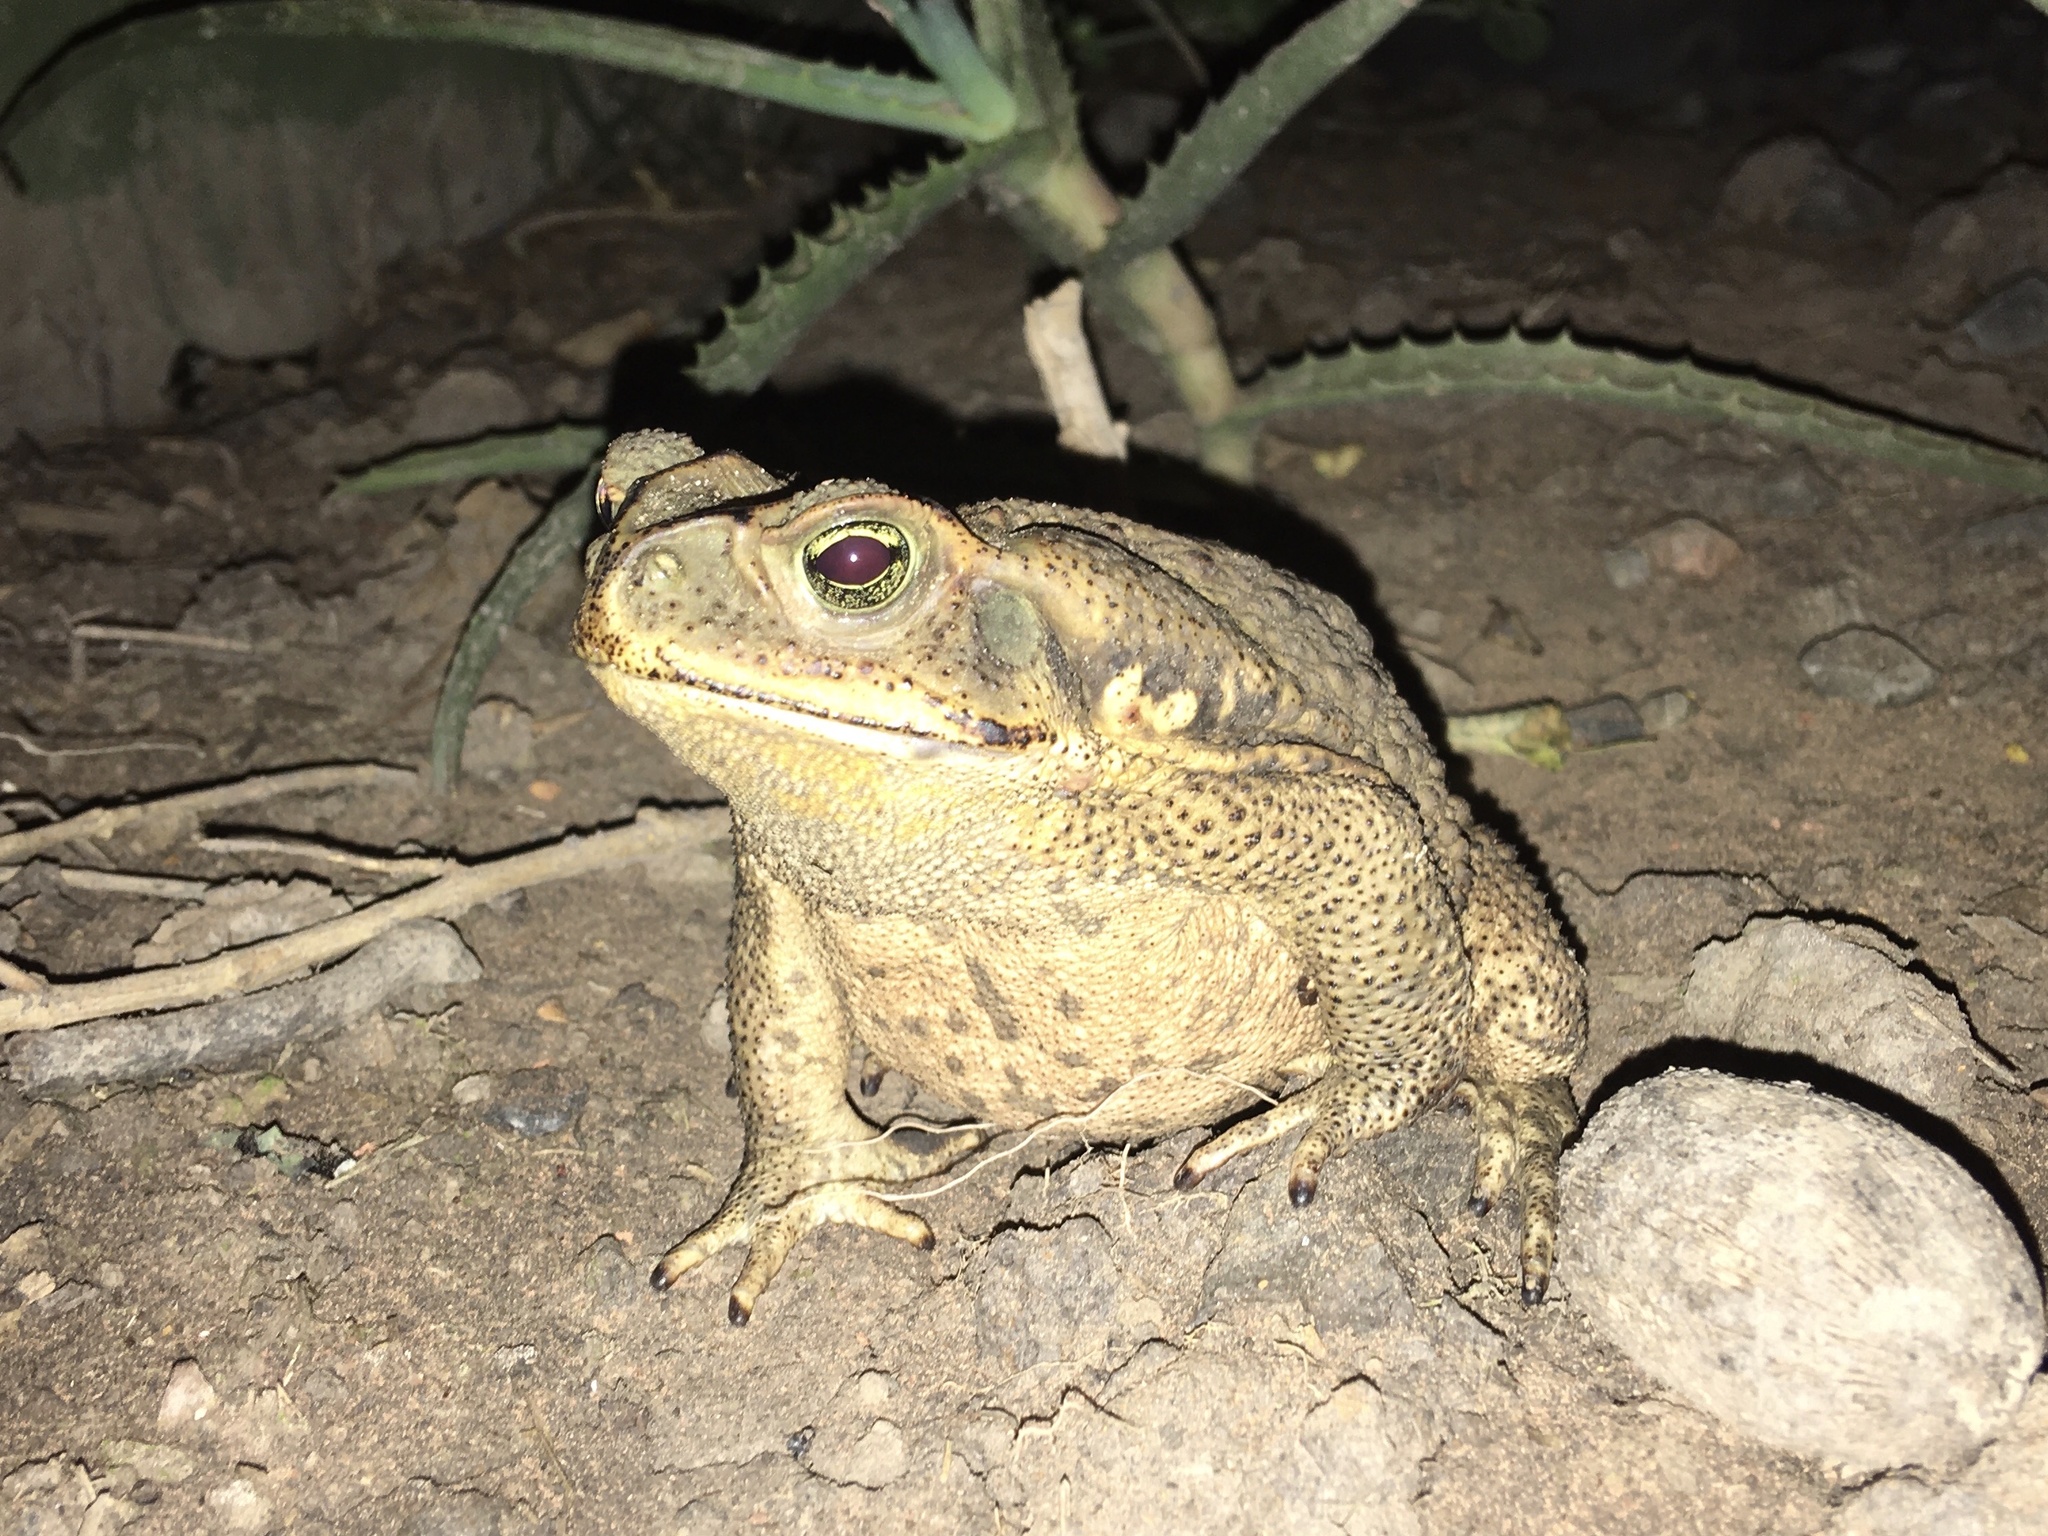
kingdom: Animalia
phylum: Chordata
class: Amphibia
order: Anura
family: Bufonidae
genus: Rhinella
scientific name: Rhinella diptycha
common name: Cope's toad
